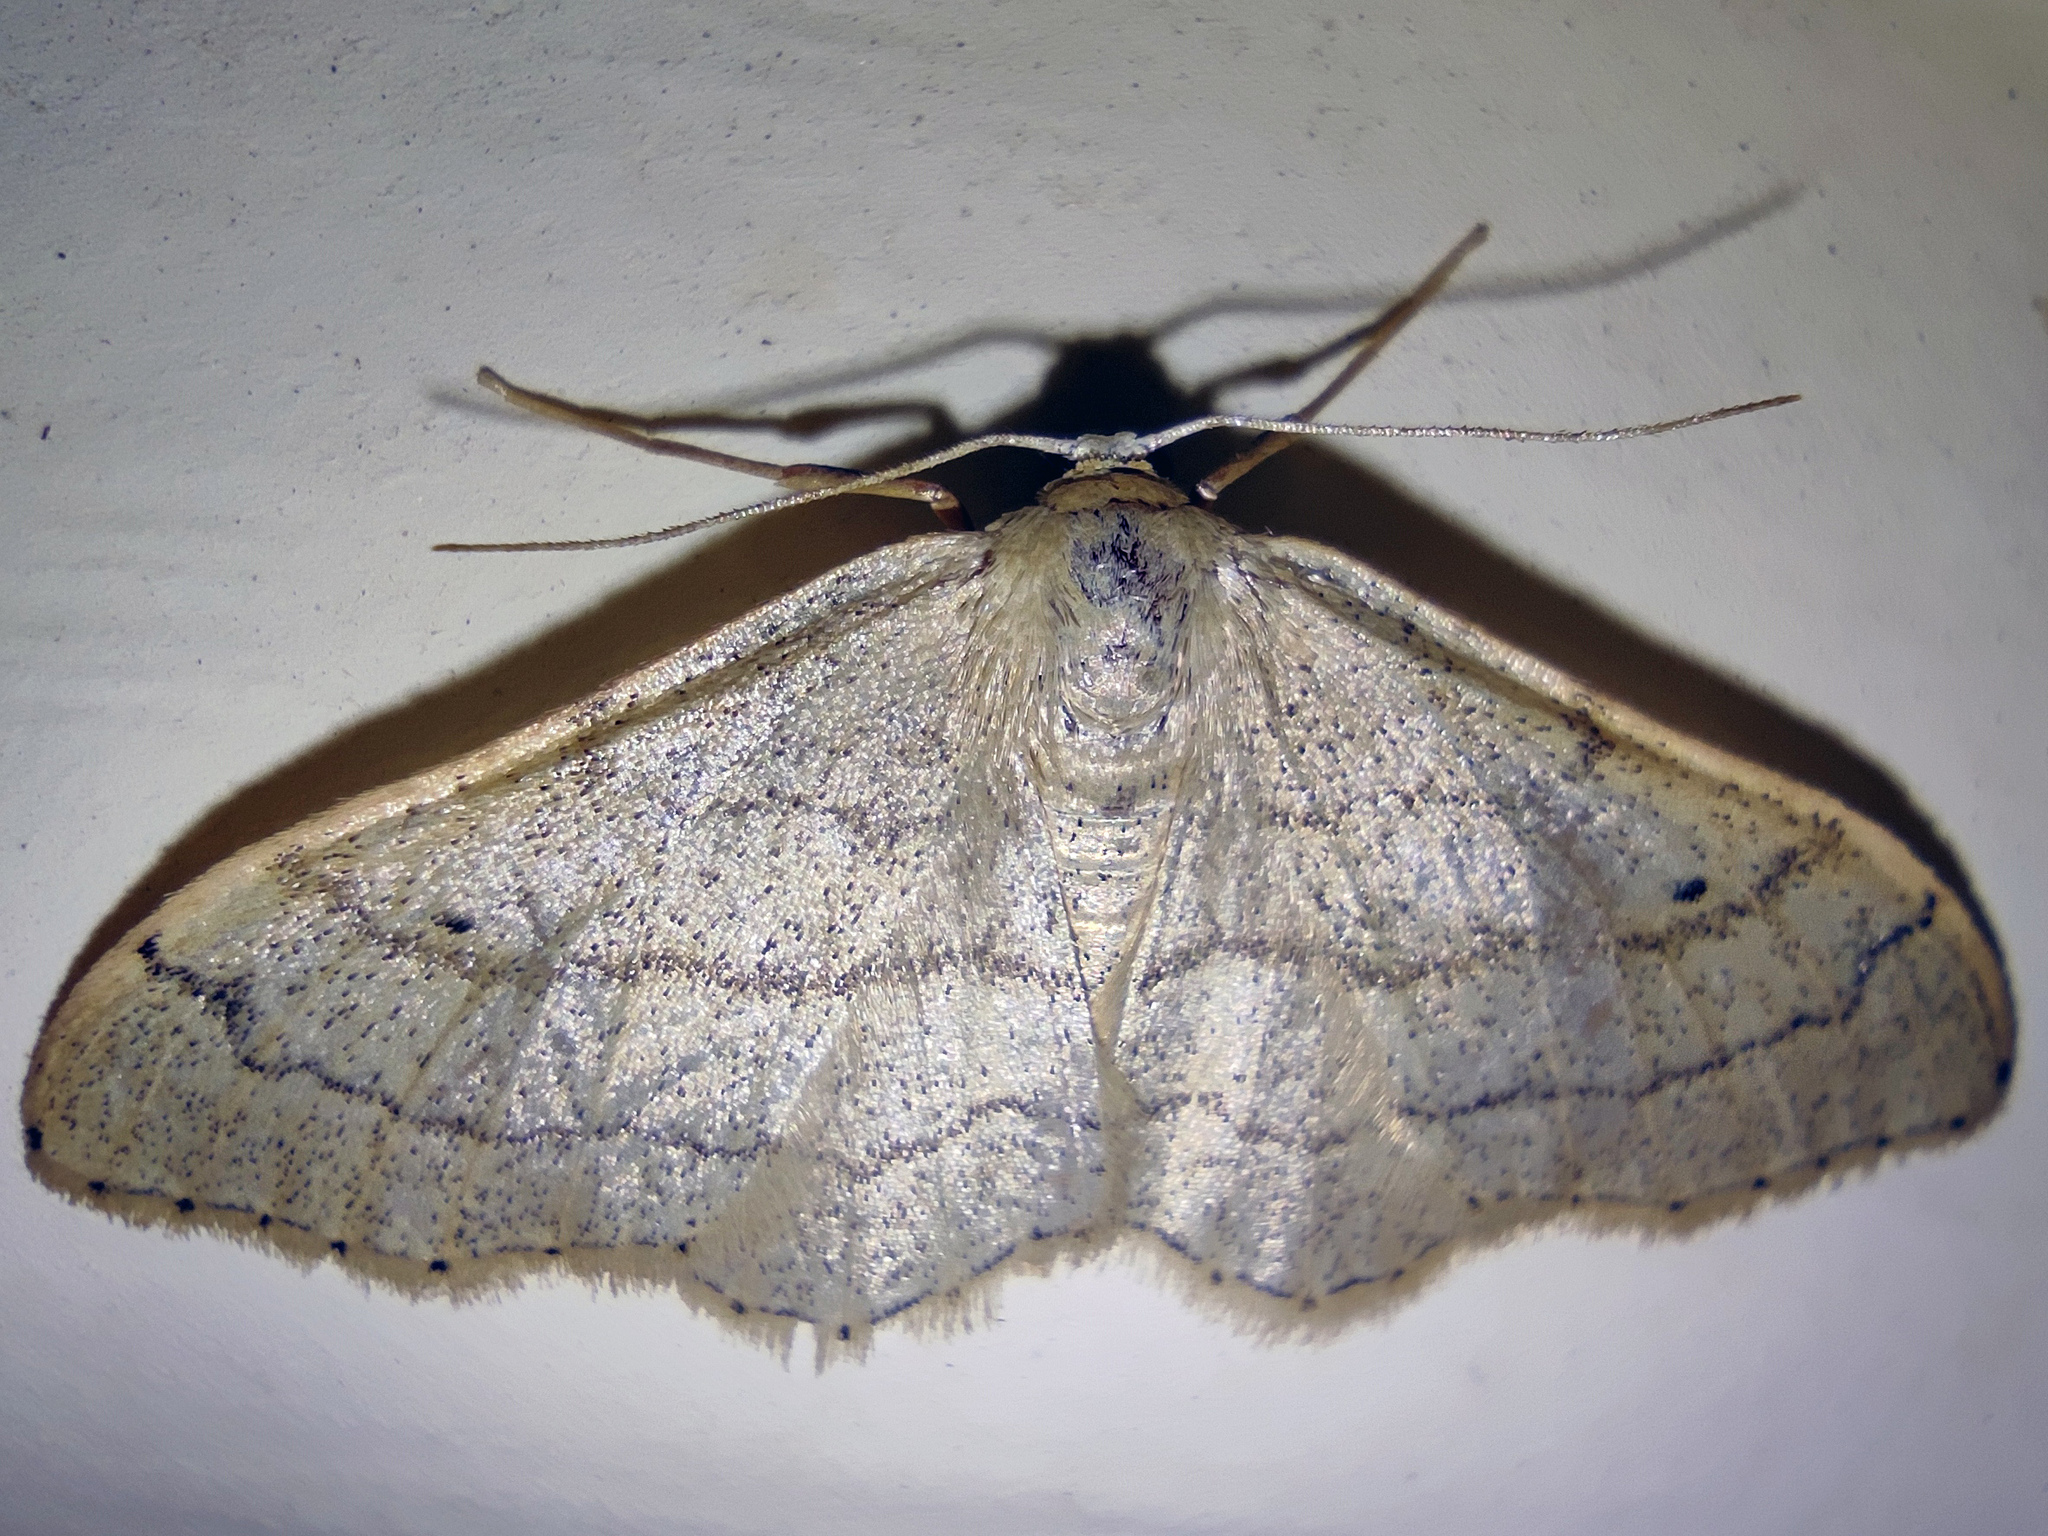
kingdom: Animalia
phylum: Arthropoda
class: Insecta
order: Lepidoptera
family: Geometridae
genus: Idaea
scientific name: Idaea aversata
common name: Riband wave
